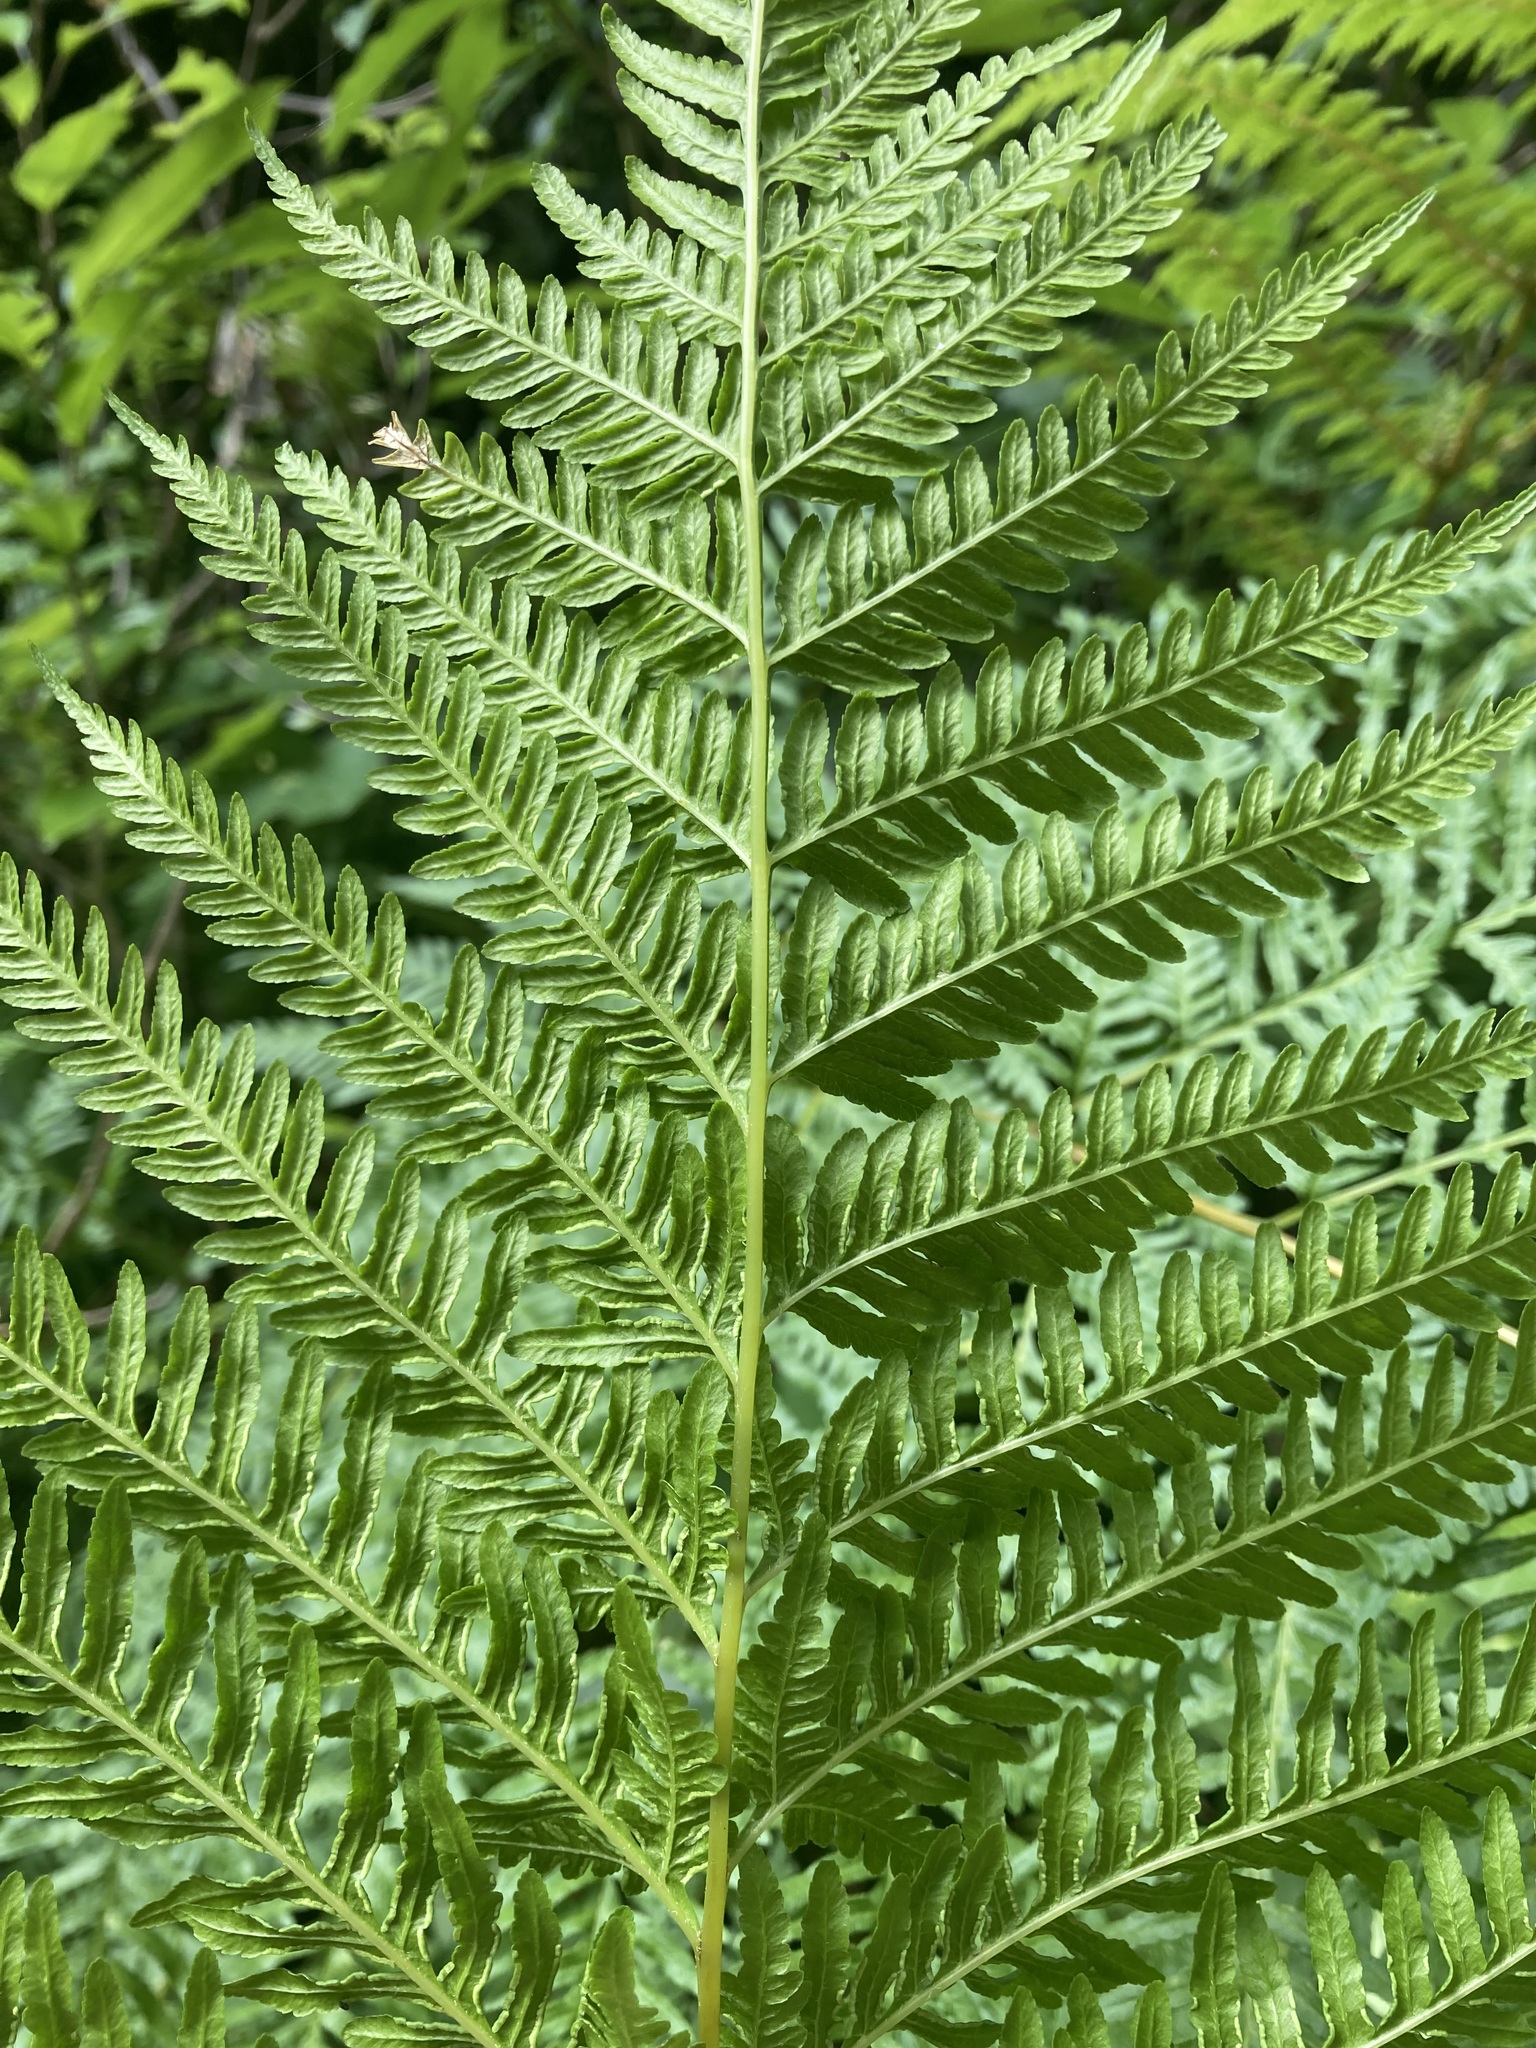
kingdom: Plantae
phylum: Tracheophyta
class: Polypodiopsida
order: Polypodiales
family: Pteridaceae
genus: Pteris
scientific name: Pteris tremula
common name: Australian brake
